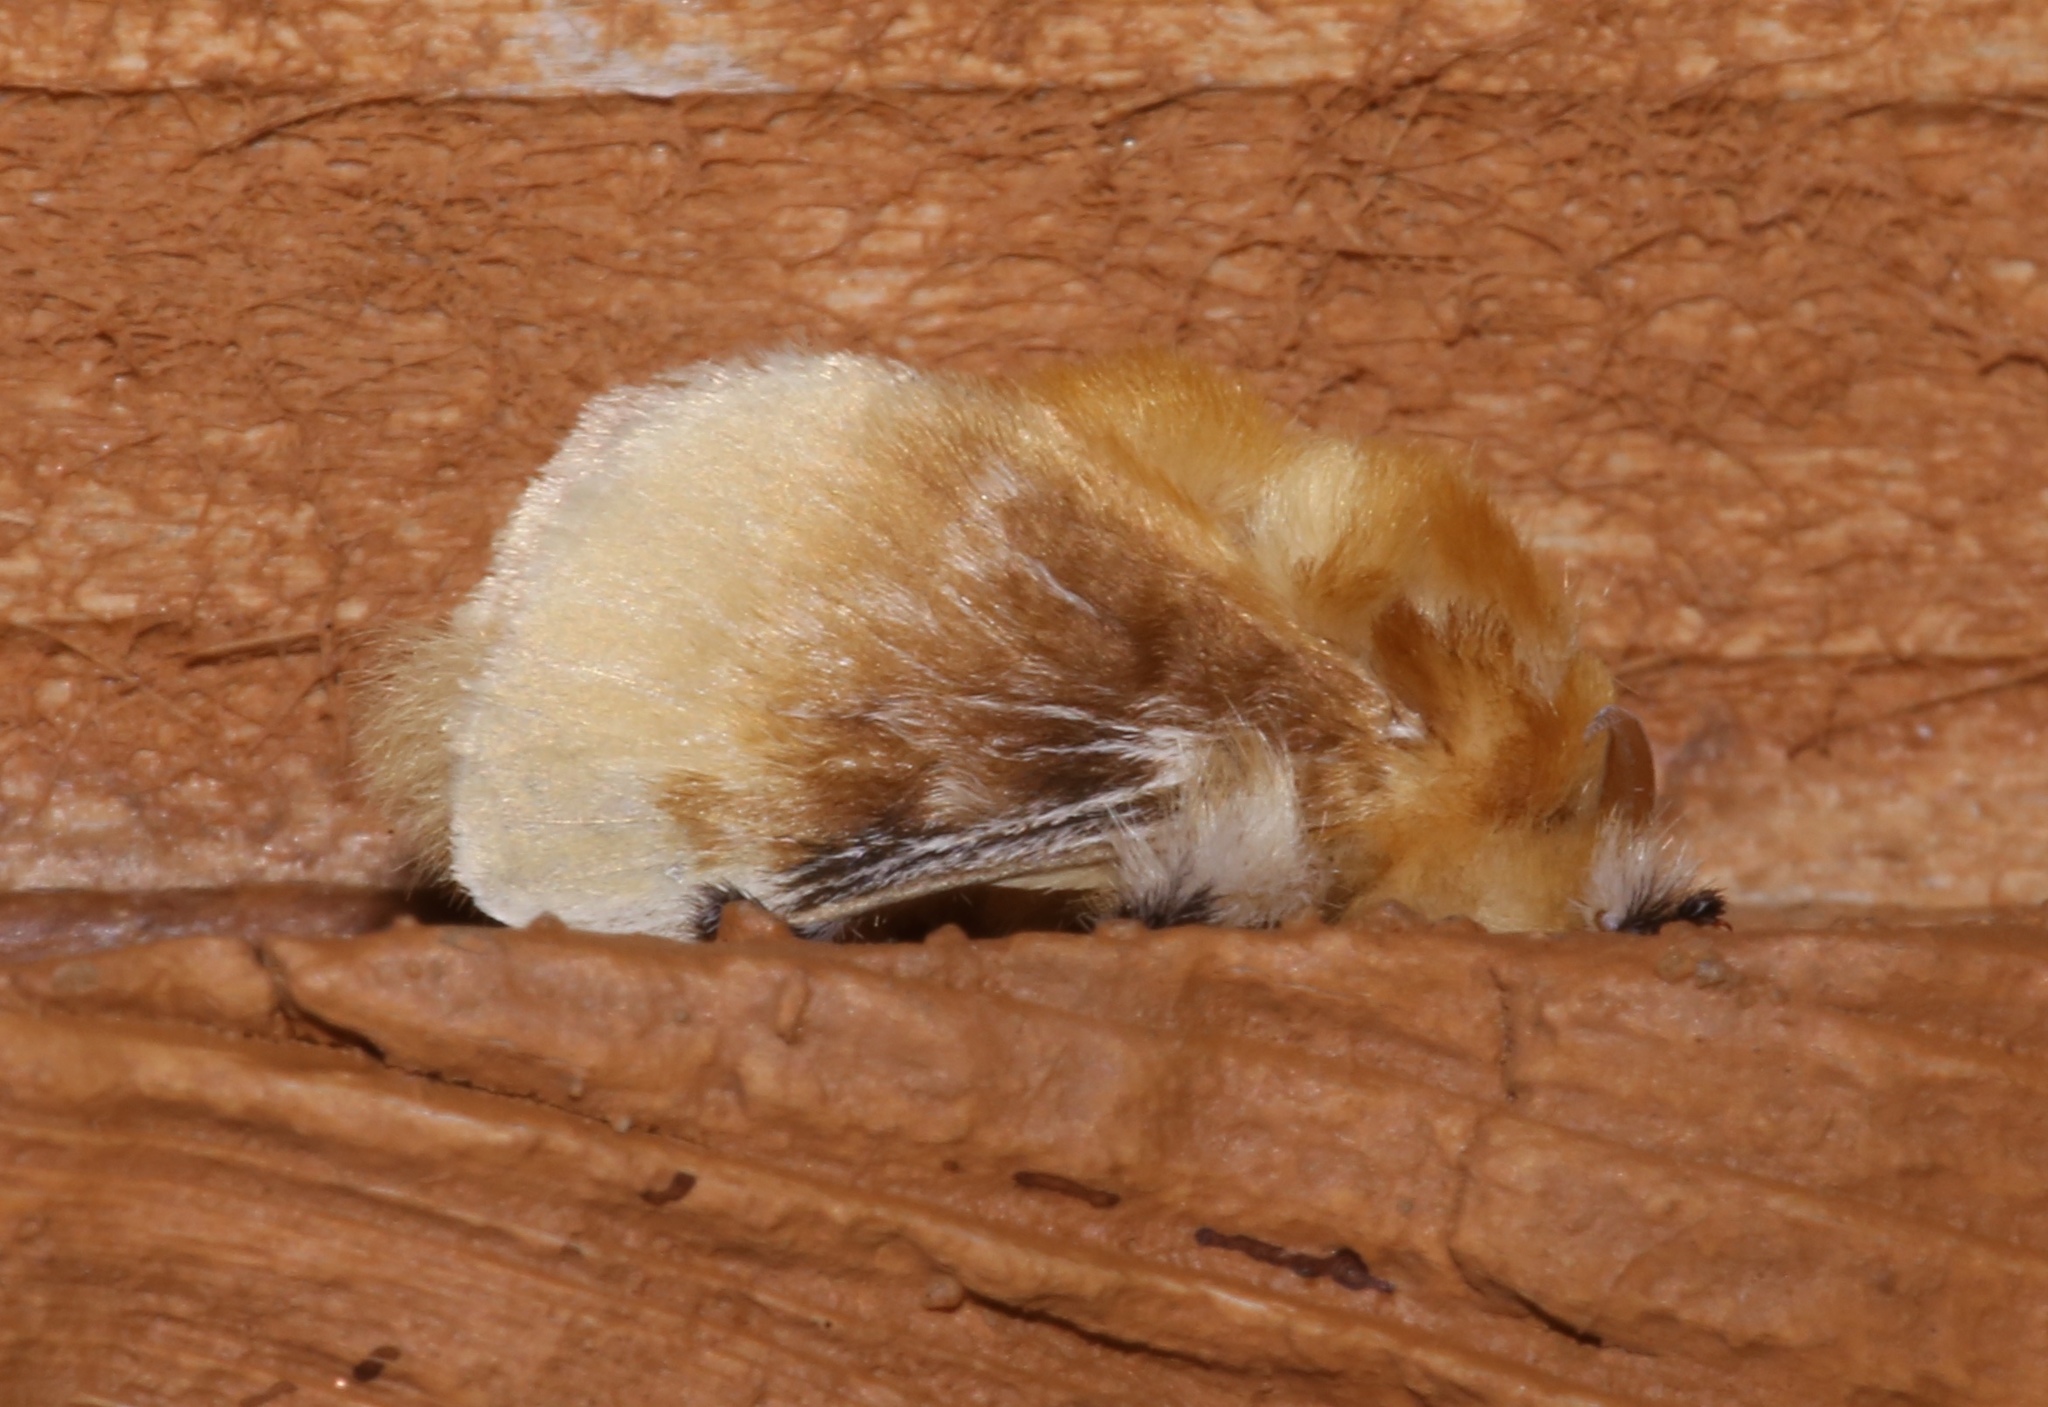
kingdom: Animalia
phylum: Arthropoda
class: Insecta
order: Lepidoptera
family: Megalopygidae
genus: Megalopyge
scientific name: Megalopyge opercularis
